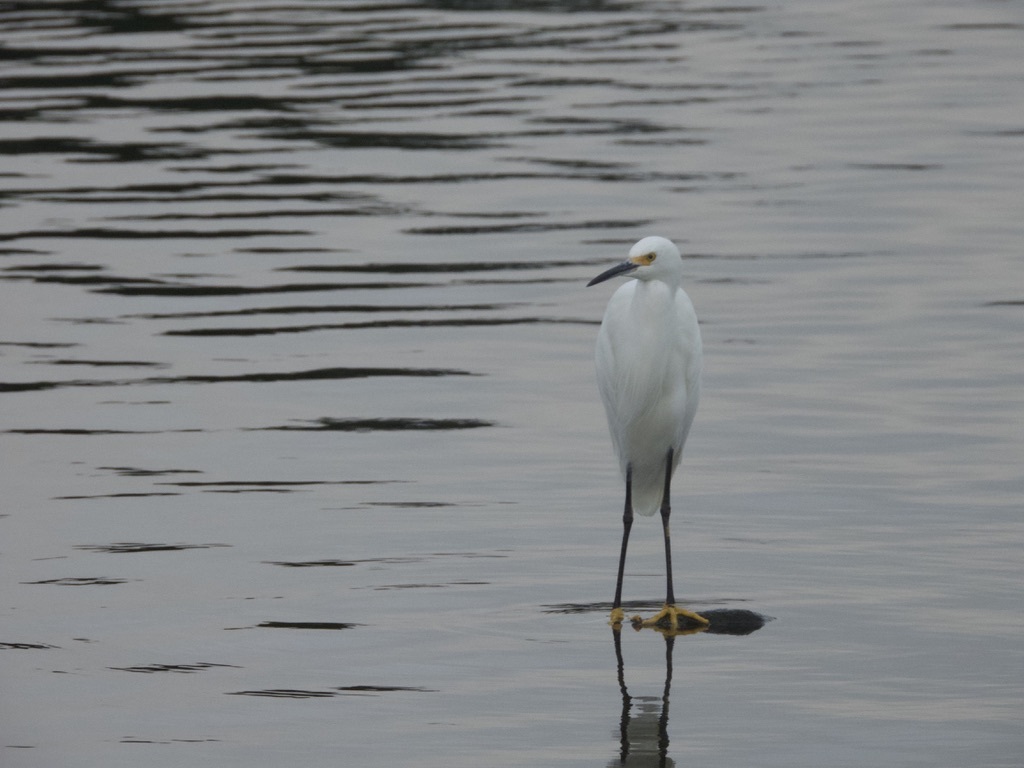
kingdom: Animalia
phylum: Chordata
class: Aves
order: Pelecaniformes
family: Ardeidae
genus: Egretta
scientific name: Egretta thula
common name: Snowy egret
